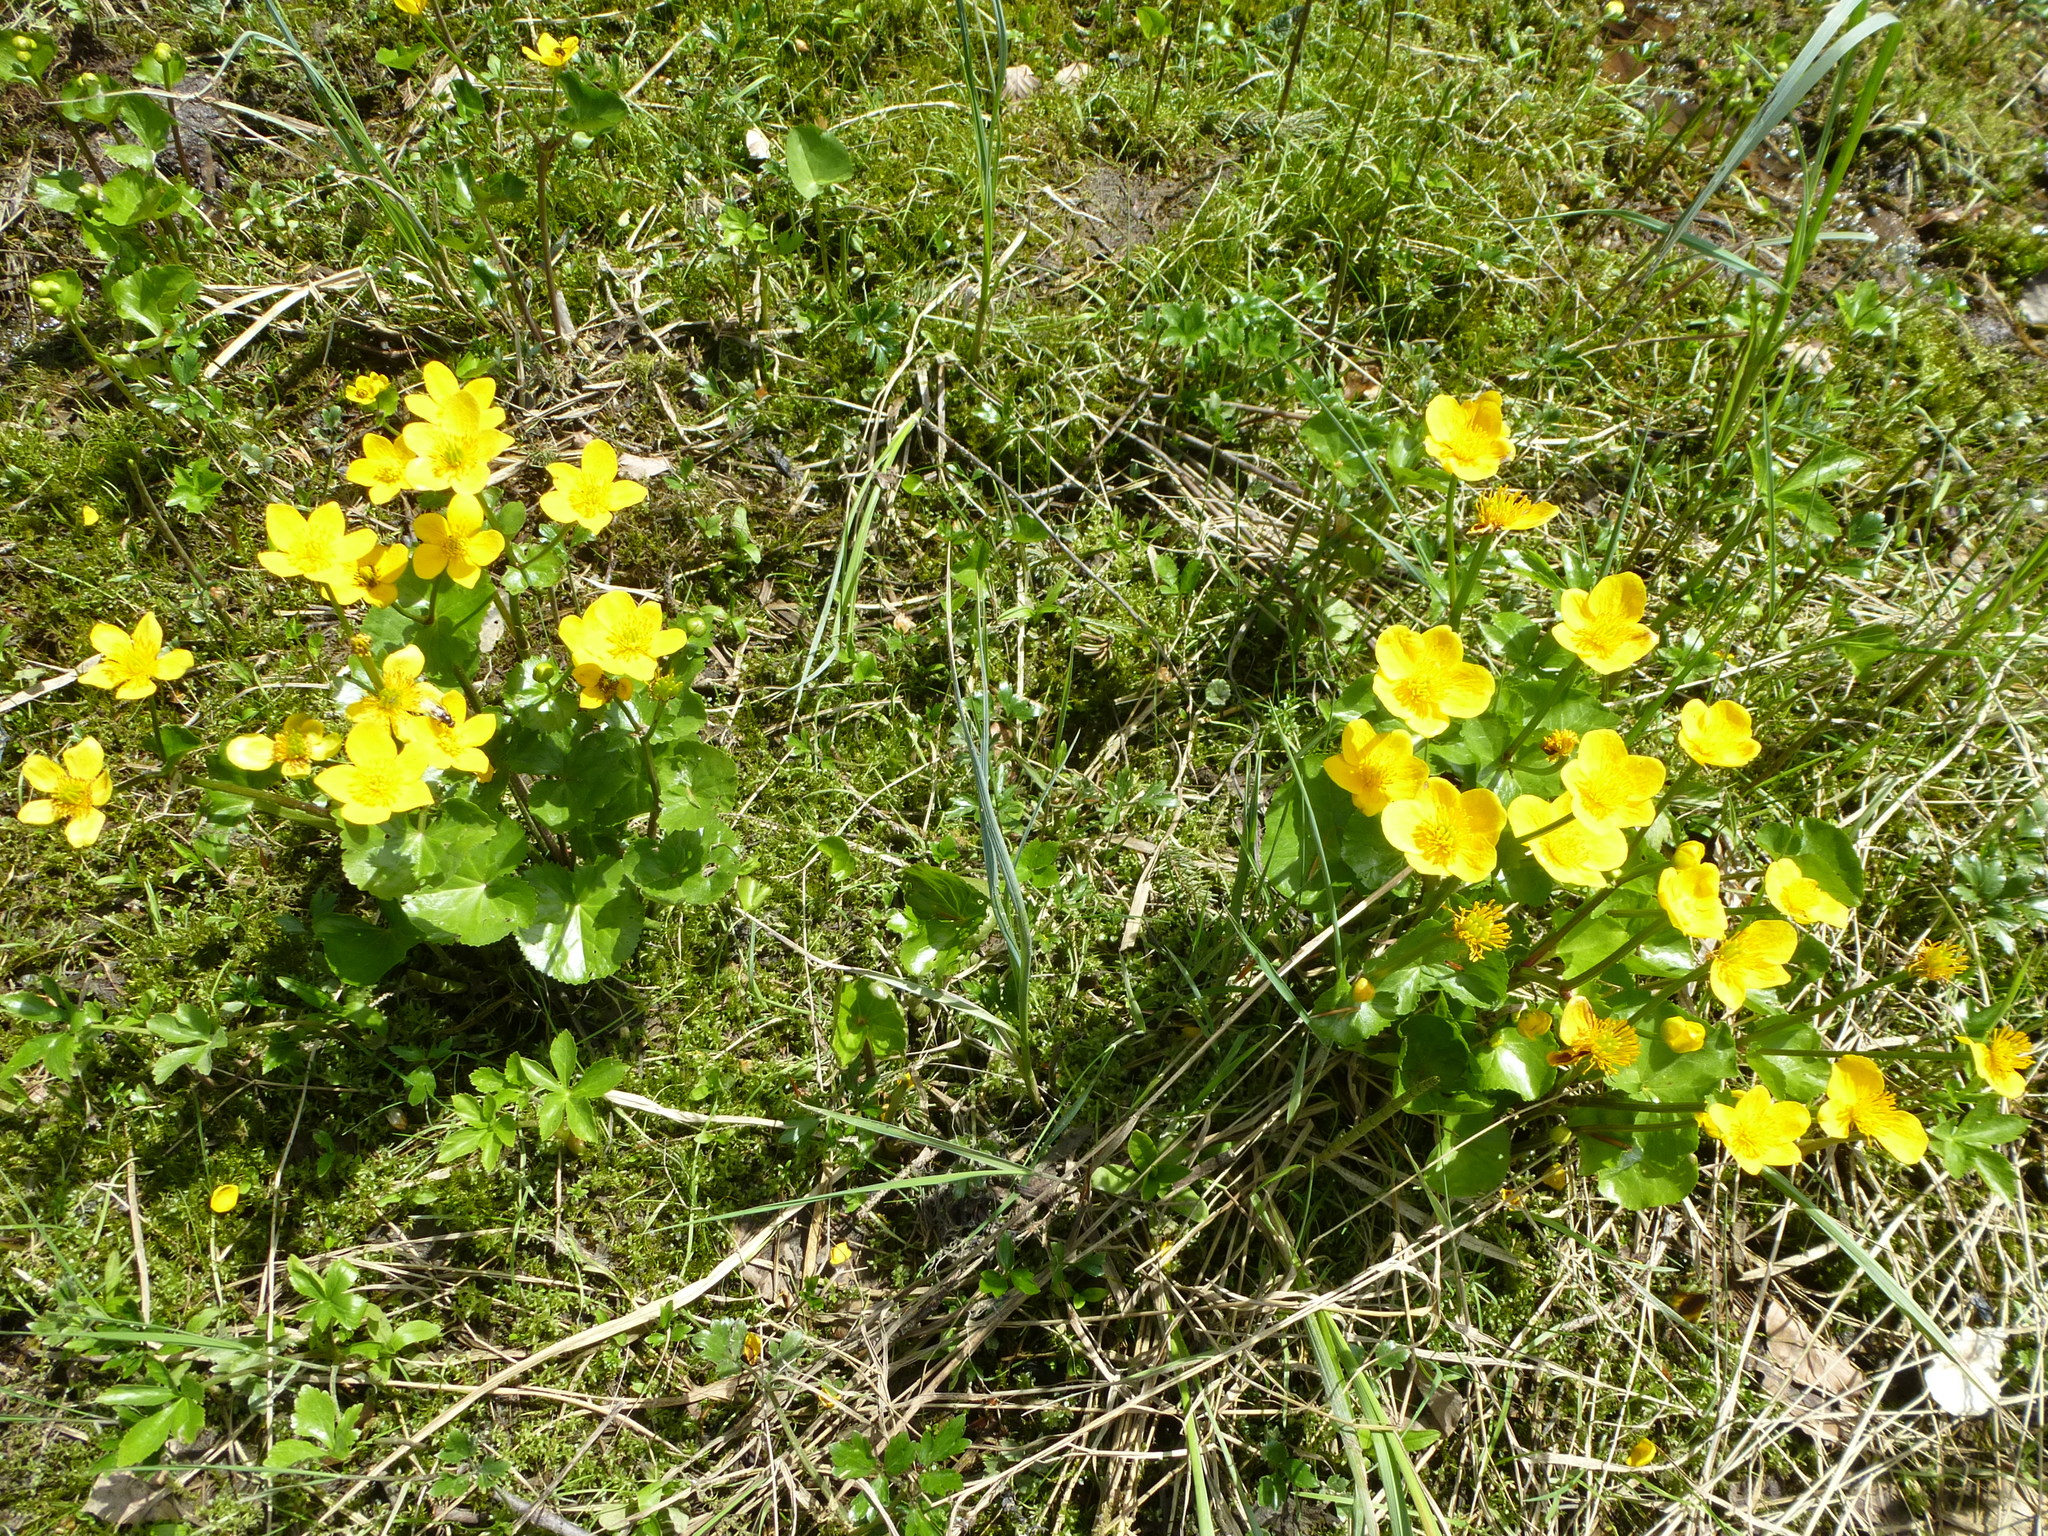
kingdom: Plantae
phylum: Tracheophyta
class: Magnoliopsida
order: Ranunculales
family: Ranunculaceae
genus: Caltha
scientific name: Caltha palustris
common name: Marsh marigold
